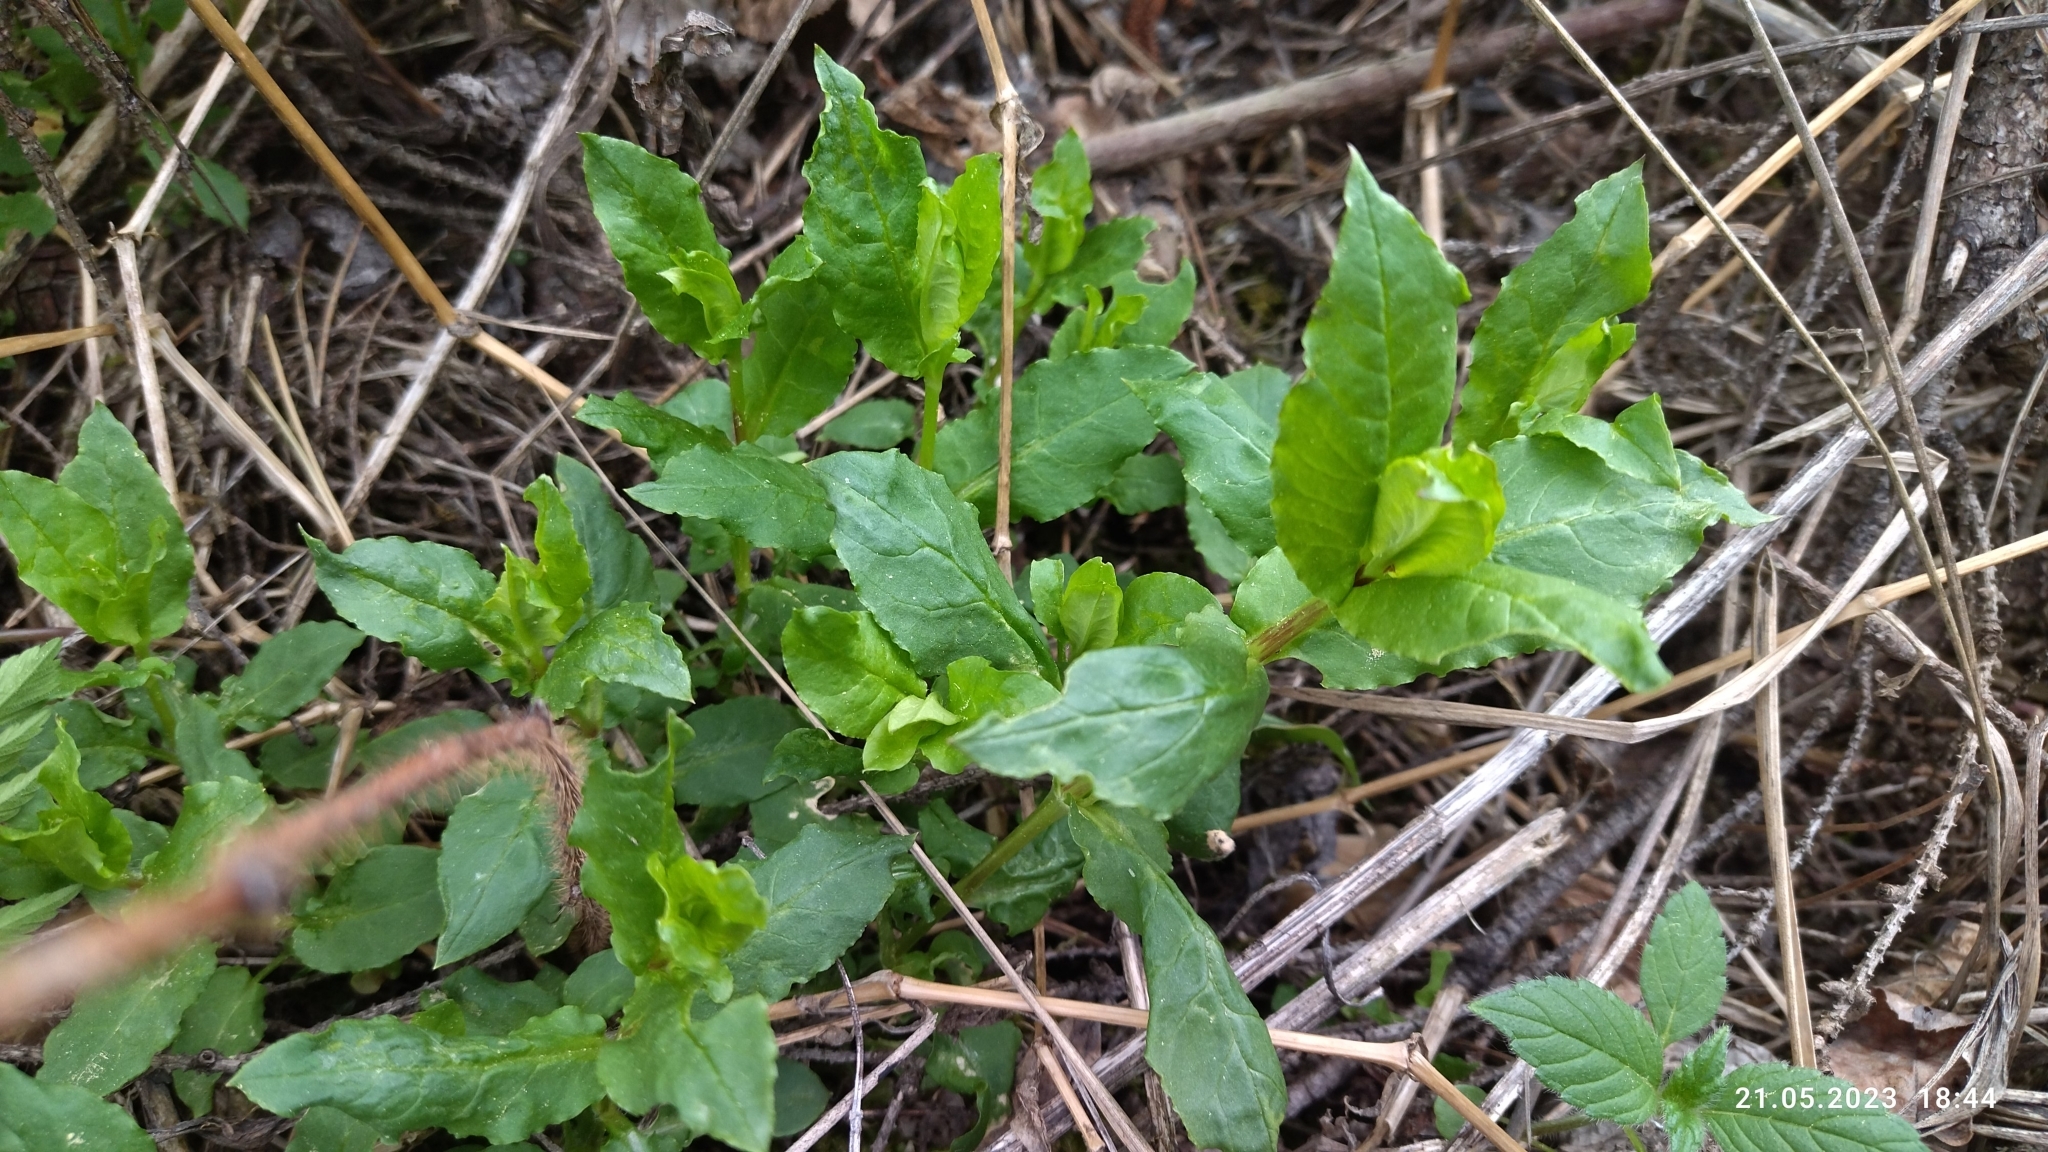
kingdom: Plantae
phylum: Tracheophyta
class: Magnoliopsida
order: Caryophyllales
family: Caryophyllaceae
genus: Stellaria
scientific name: Stellaria aquatica
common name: Water chickweed
